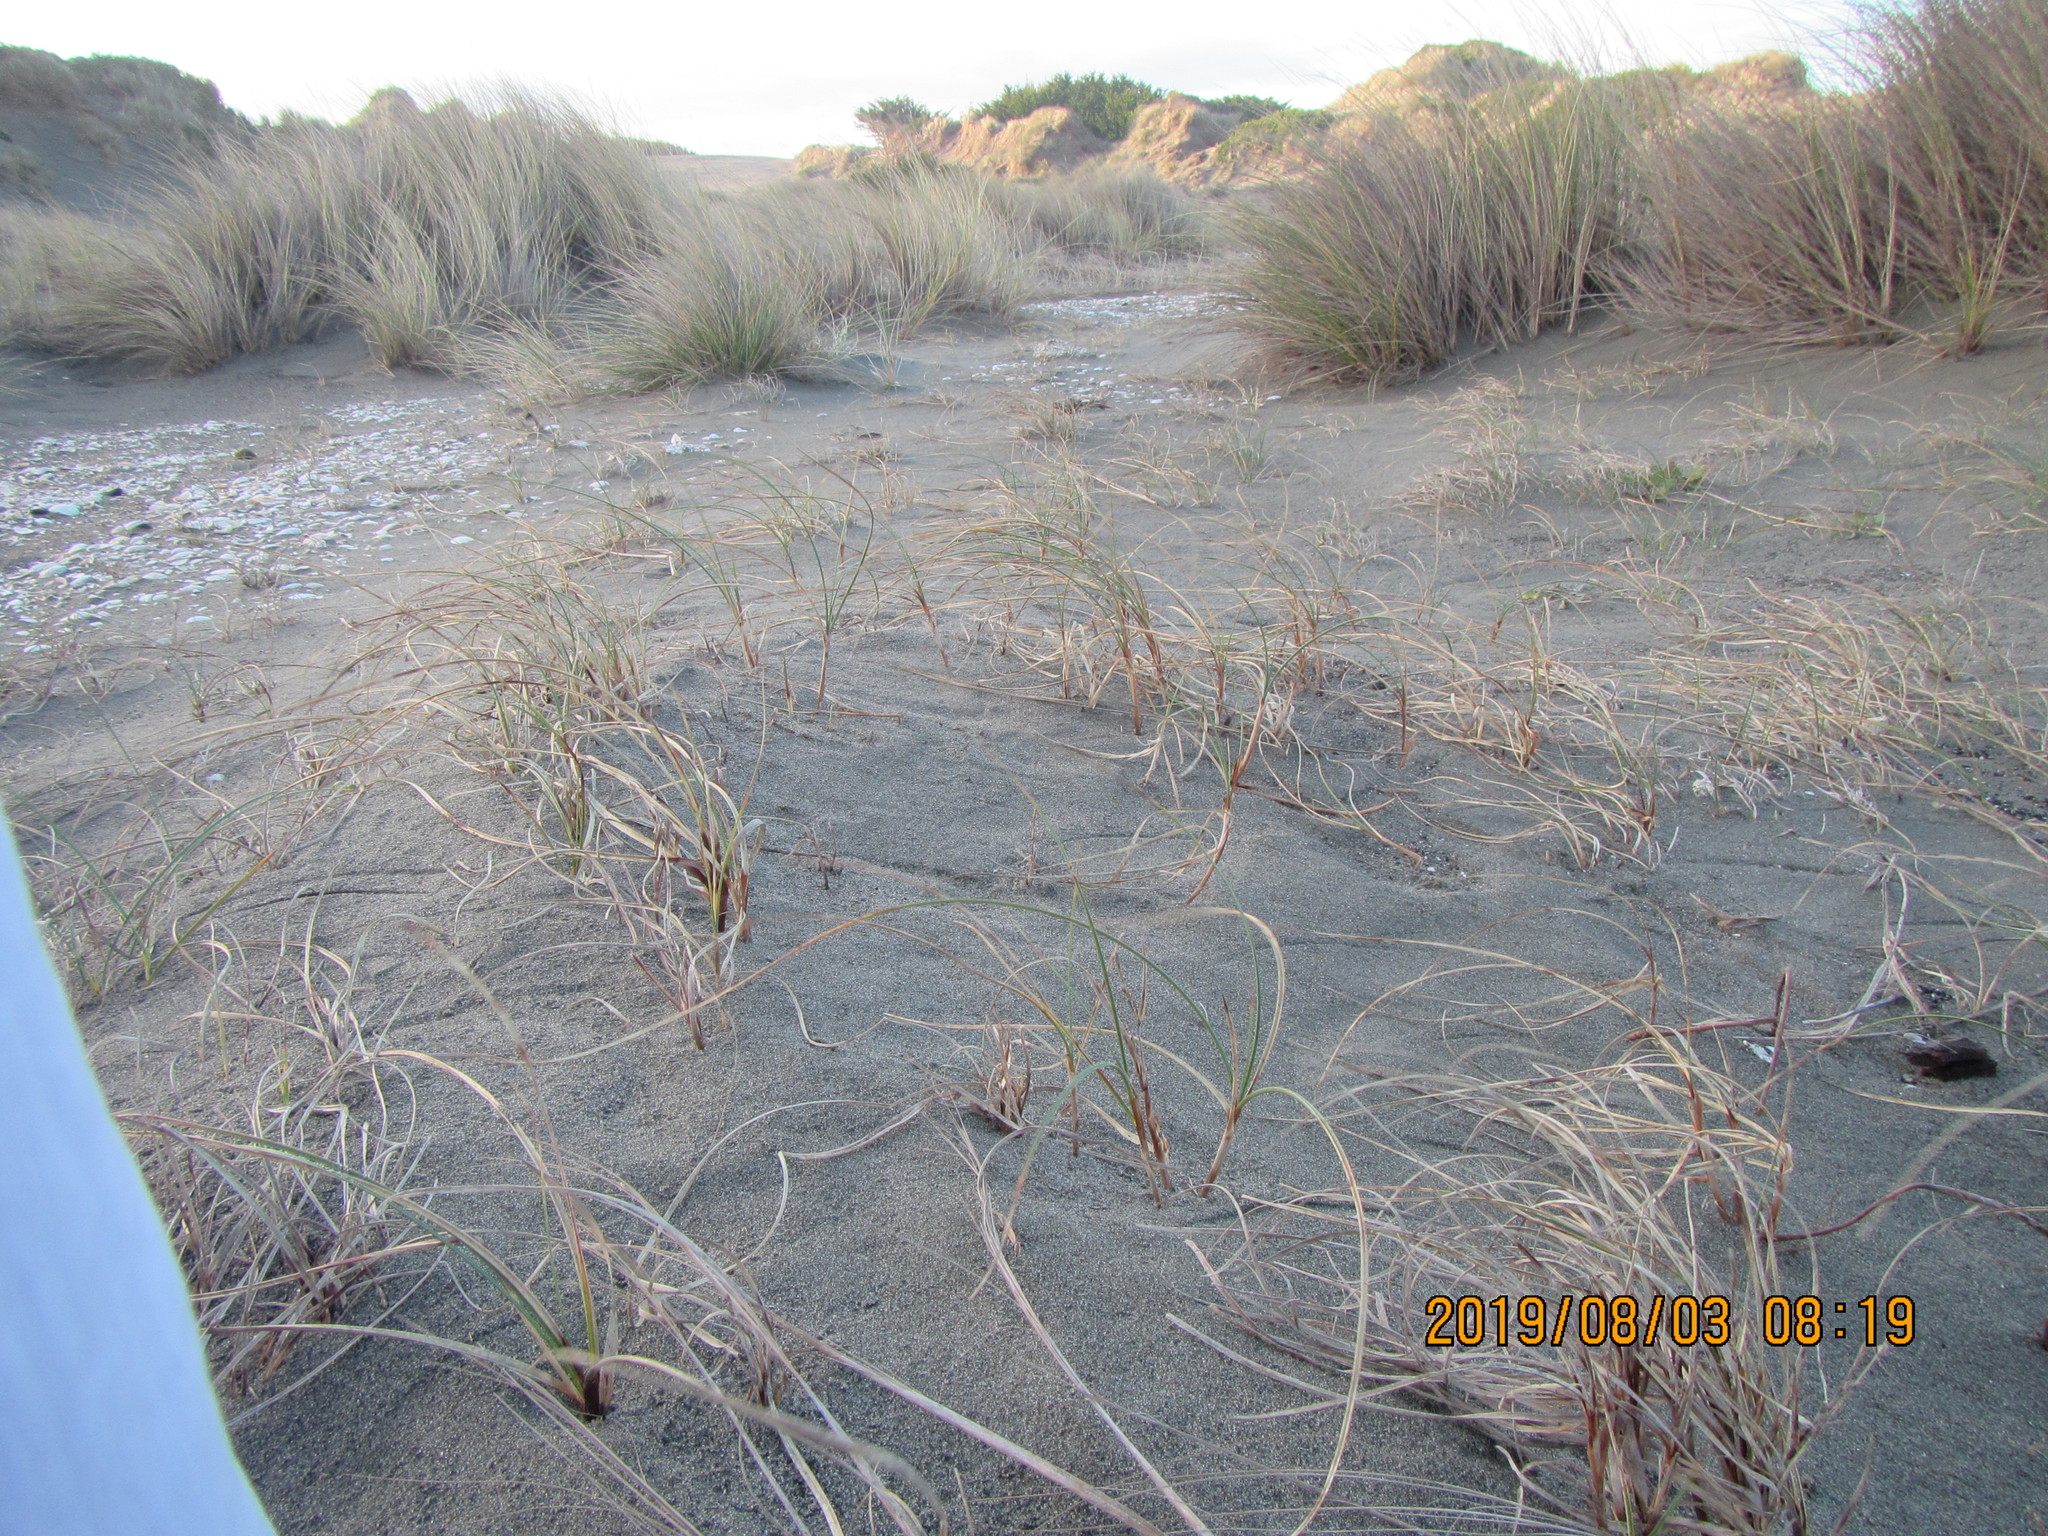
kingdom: Plantae
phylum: Tracheophyta
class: Liliopsida
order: Poales
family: Cyperaceae
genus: Carex
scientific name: Carex pumila
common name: Dwarf sedge
